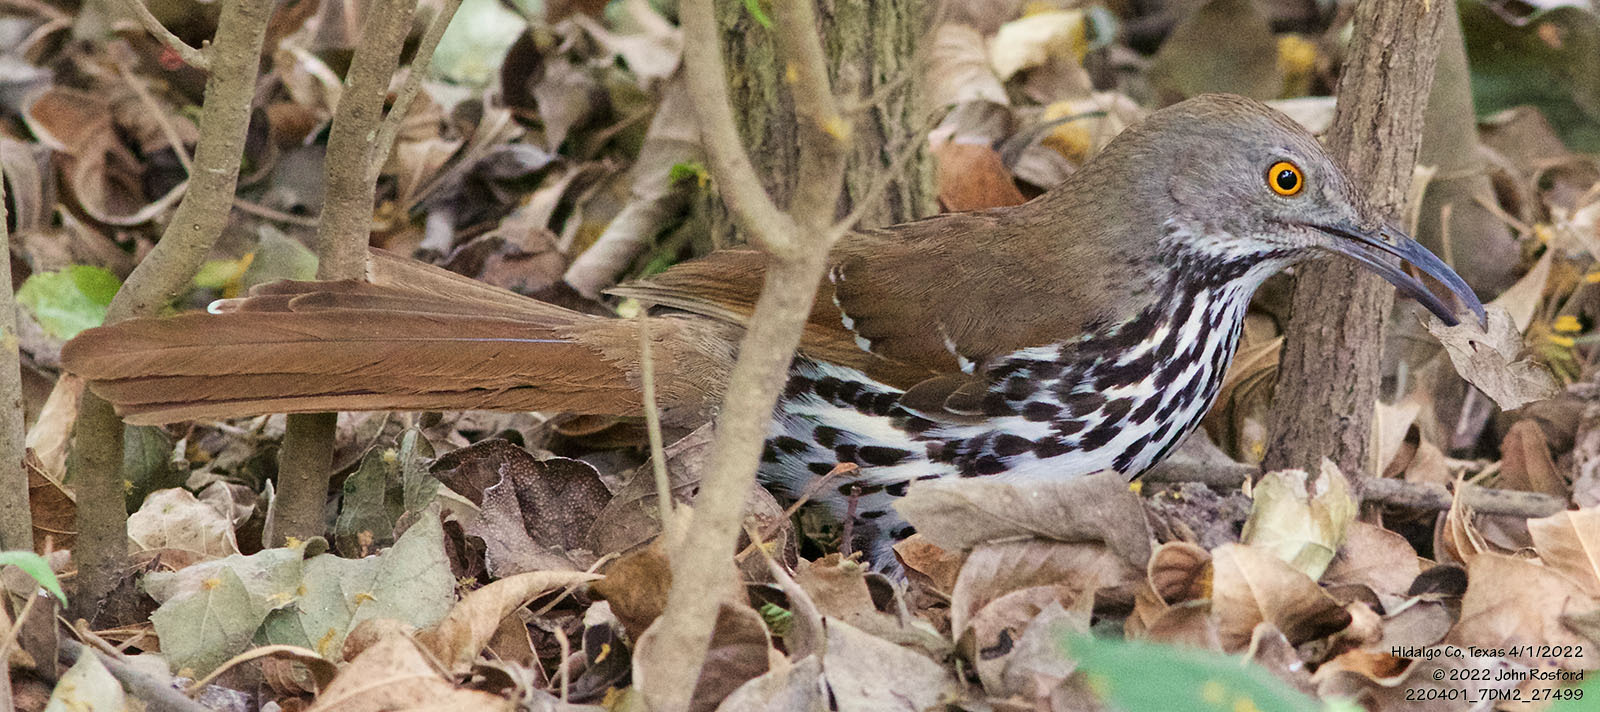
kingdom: Animalia
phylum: Chordata
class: Aves
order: Passeriformes
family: Mimidae
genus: Toxostoma
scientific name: Toxostoma longirostre
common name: Long-billed thrasher
